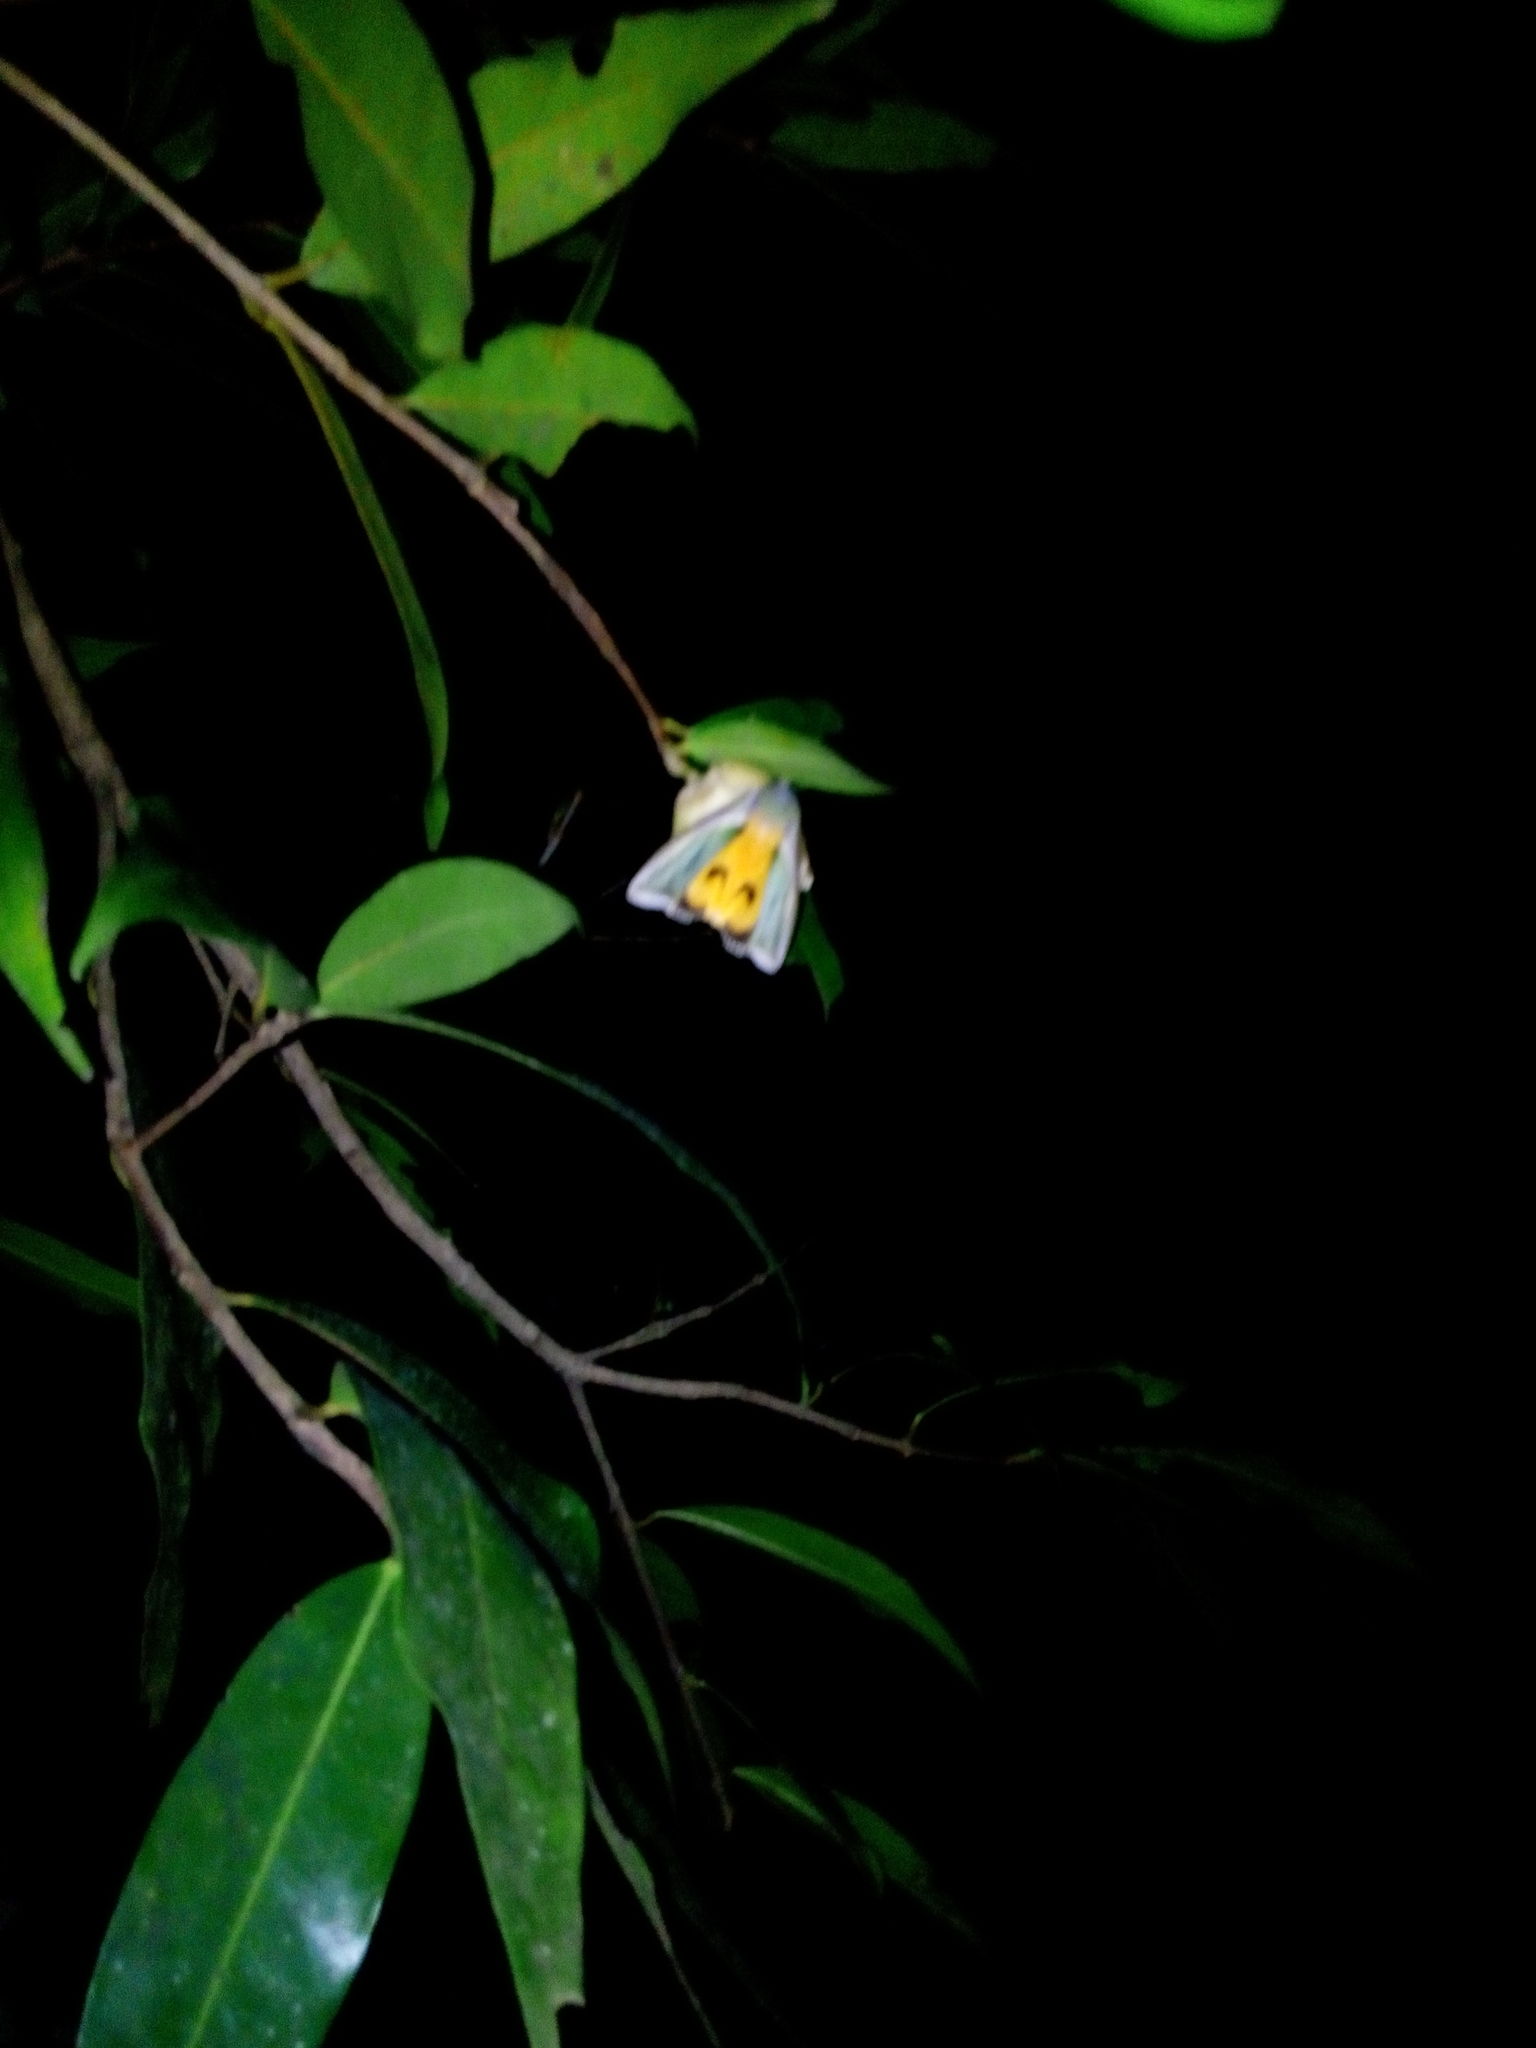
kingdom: Animalia
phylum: Arthropoda
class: Insecta
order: Lepidoptera
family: Erebidae
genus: Eudocima
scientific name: Eudocima salaminia
